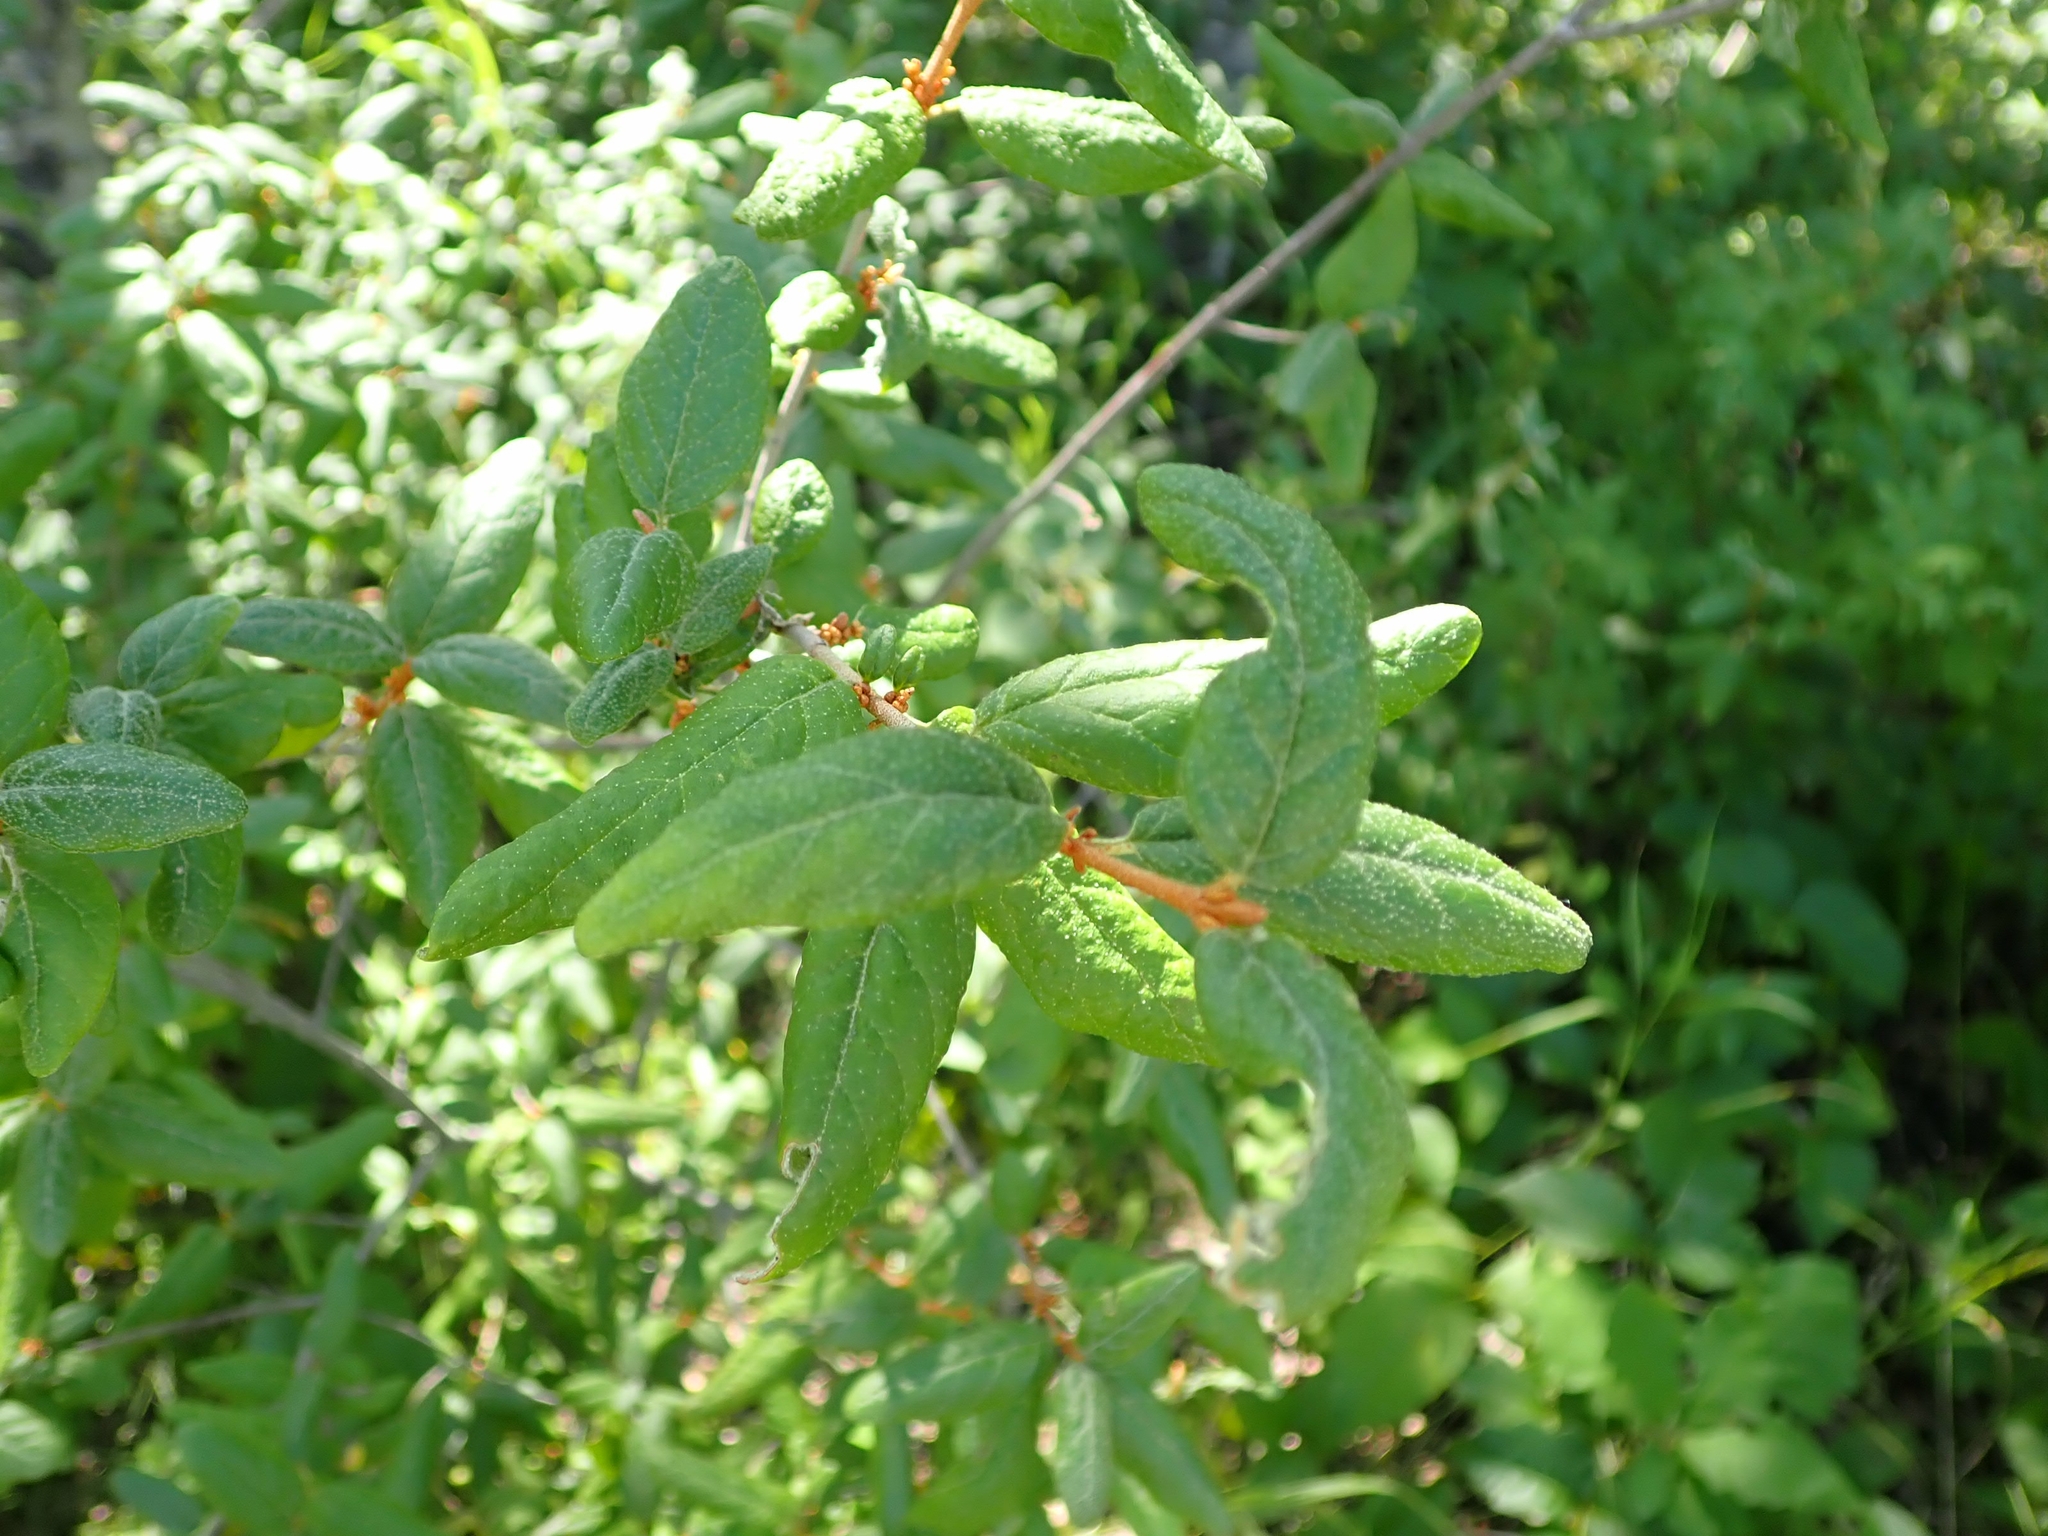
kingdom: Plantae
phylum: Tracheophyta
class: Magnoliopsida
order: Rosales
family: Elaeagnaceae
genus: Shepherdia
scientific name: Shepherdia canadensis
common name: Soapberry
